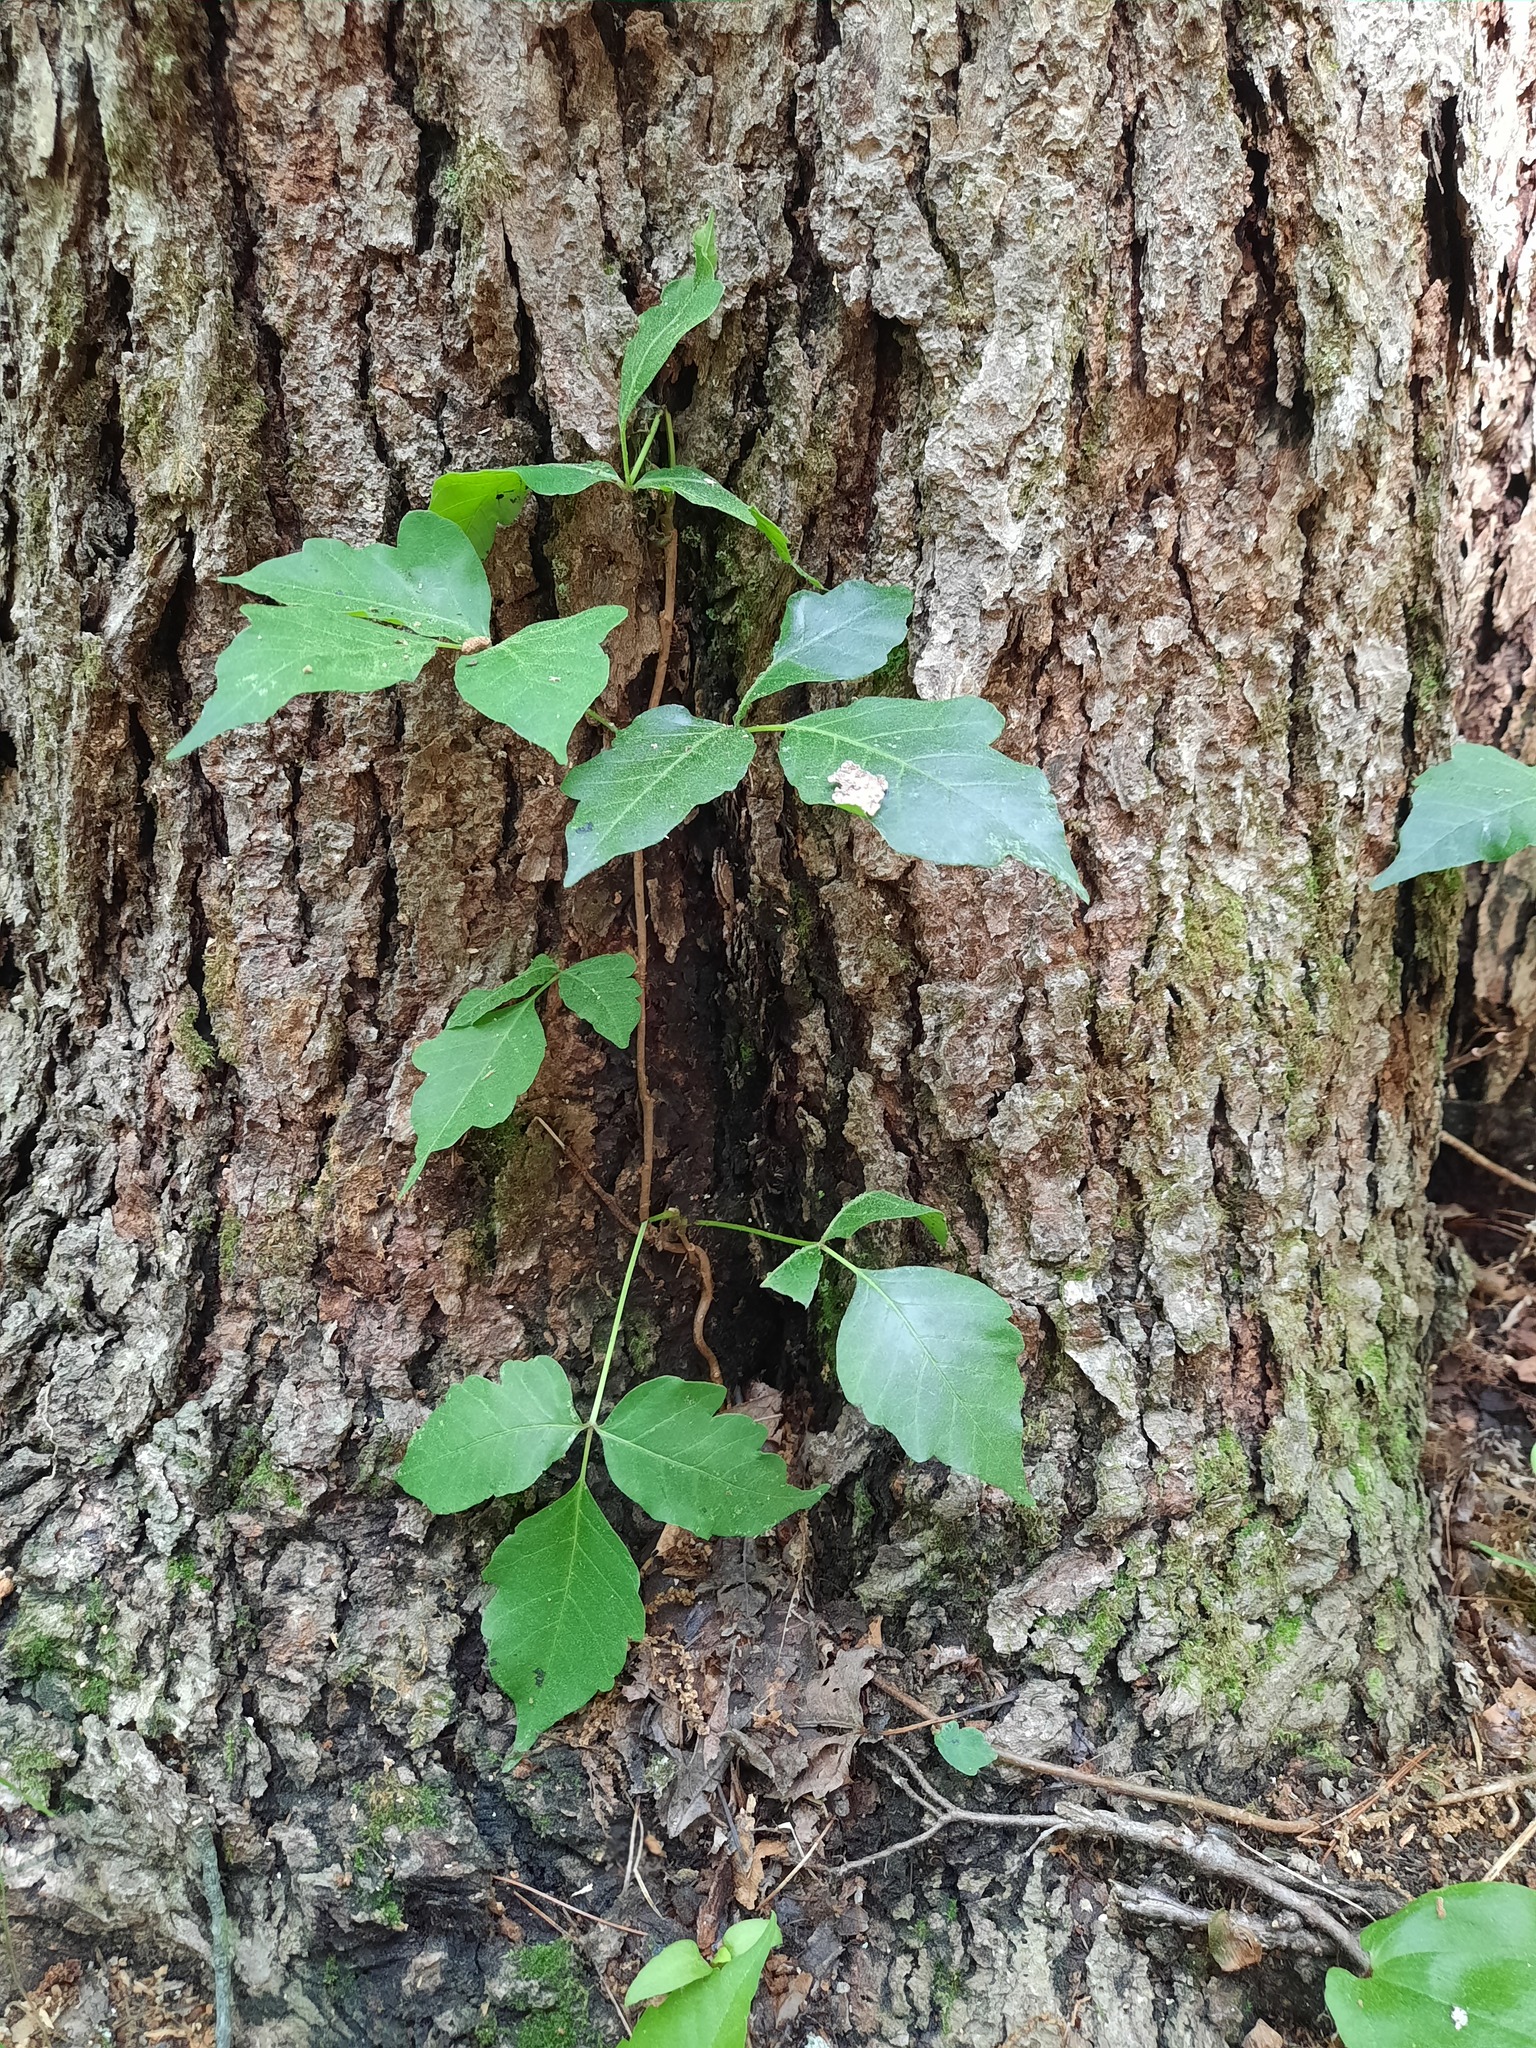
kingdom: Plantae
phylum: Tracheophyta
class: Magnoliopsida
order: Sapindales
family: Anacardiaceae
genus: Toxicodendron
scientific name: Toxicodendron radicans
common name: Poison ivy
